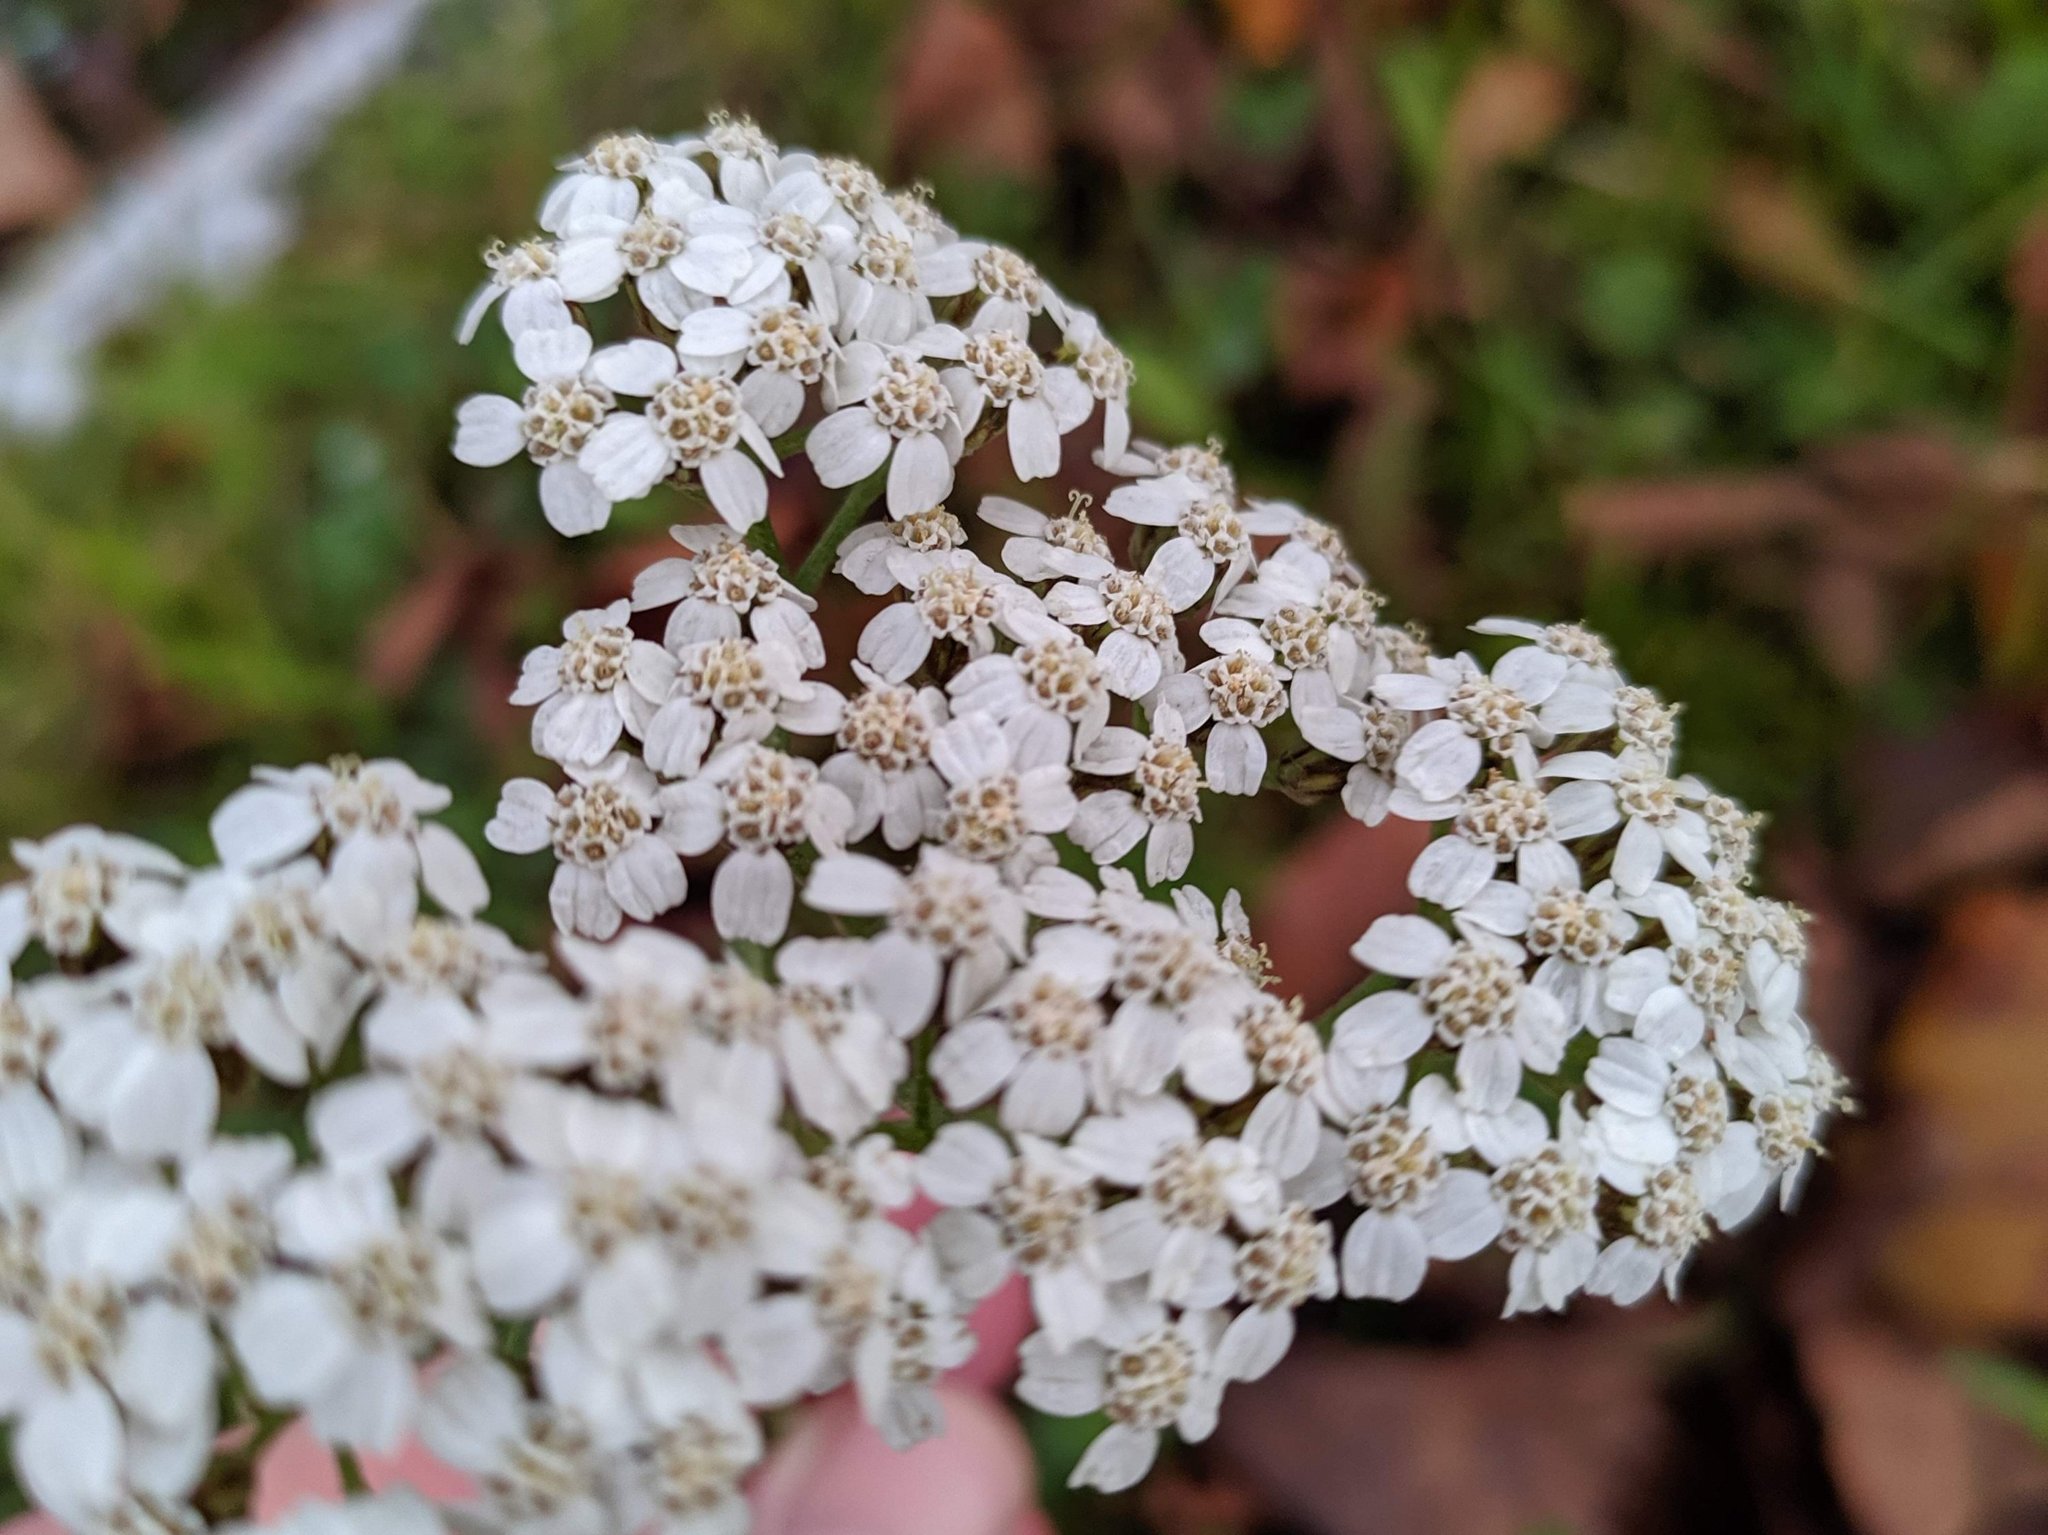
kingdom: Plantae
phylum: Tracheophyta
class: Magnoliopsida
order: Asterales
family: Asteraceae
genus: Achillea
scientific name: Achillea millefolium
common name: Yarrow
